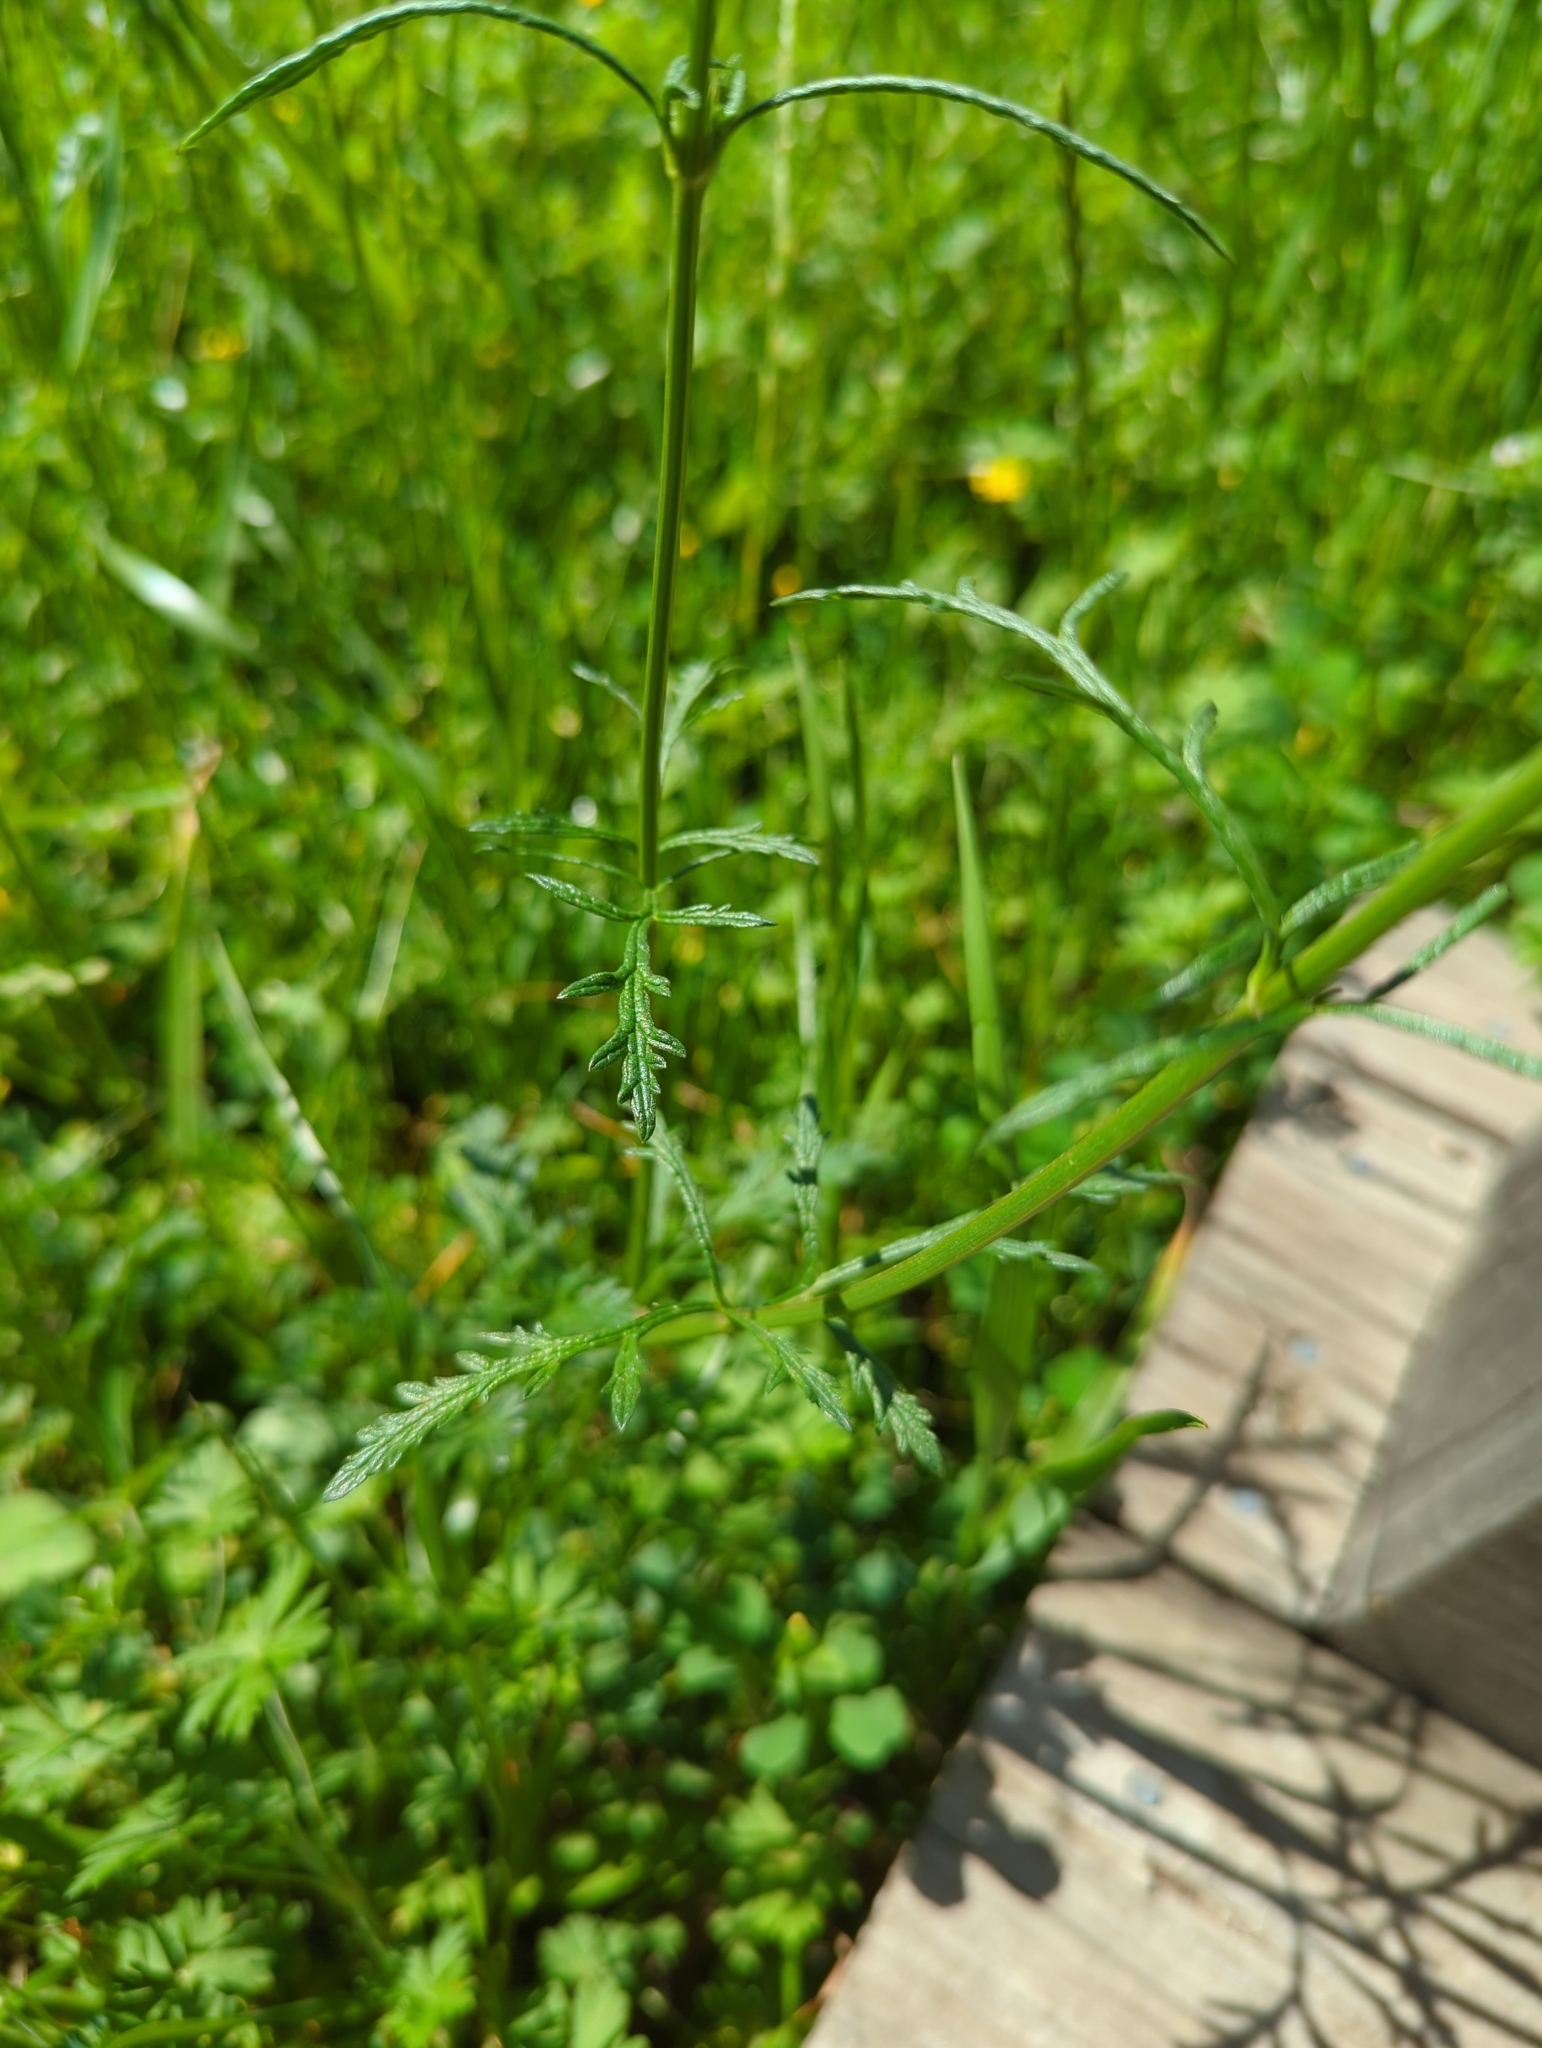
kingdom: Plantae
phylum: Tracheophyta
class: Magnoliopsida
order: Lamiales
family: Verbenaceae
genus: Verbena
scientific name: Verbena halei
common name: Texas vervain
